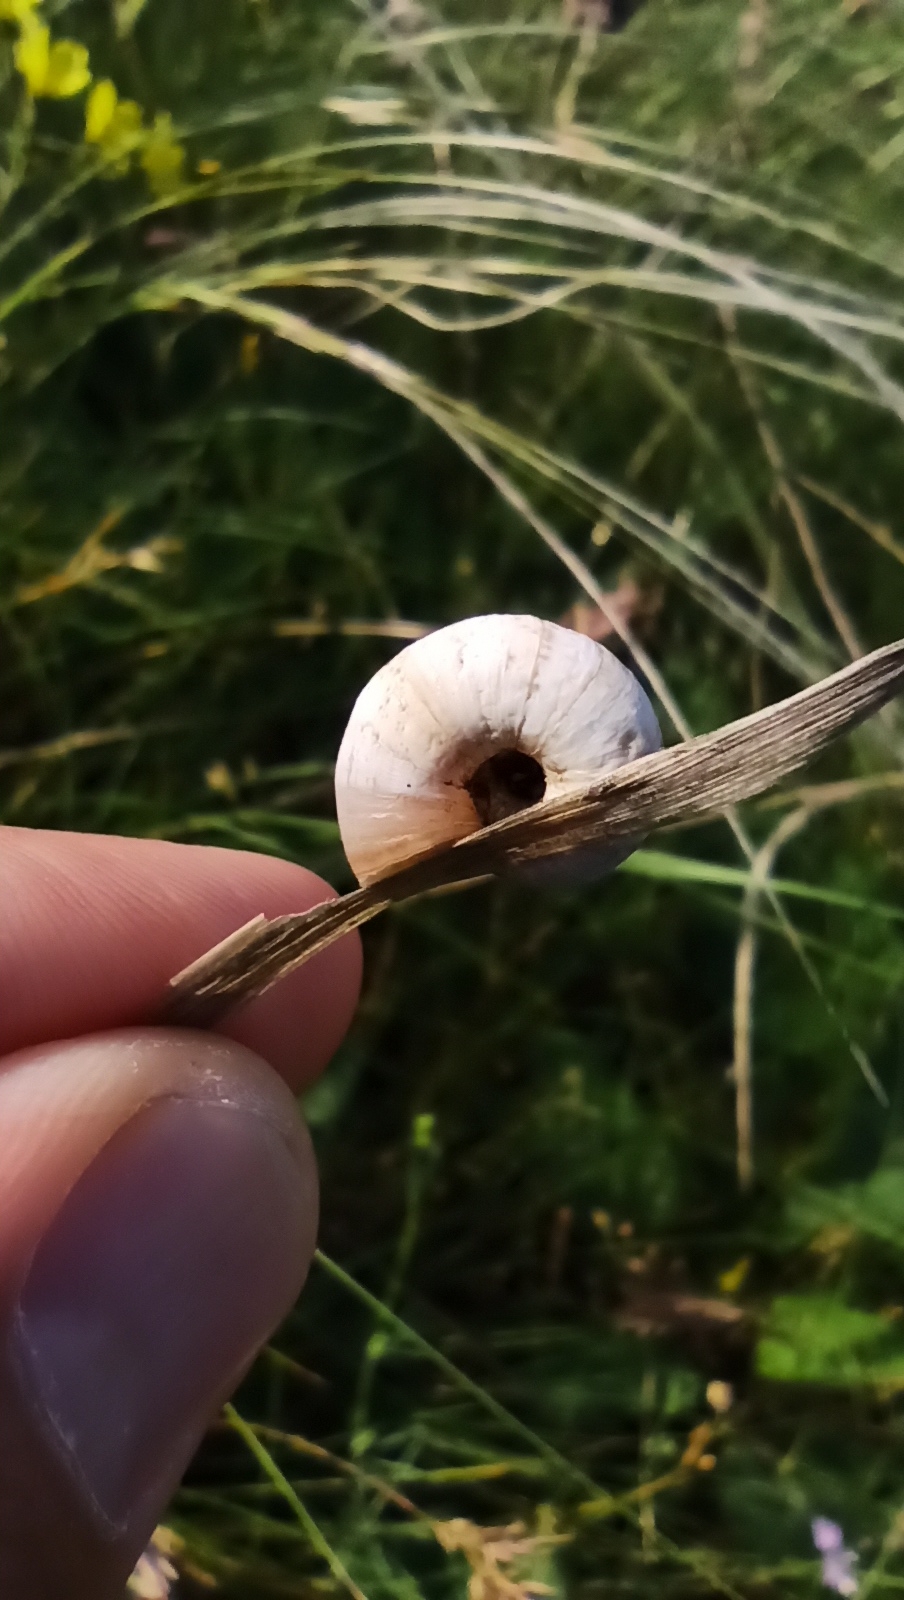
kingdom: Animalia
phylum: Mollusca
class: Gastropoda
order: Stylommatophora
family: Geomitridae
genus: Xeropicta
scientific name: Xeropicta derbentina
